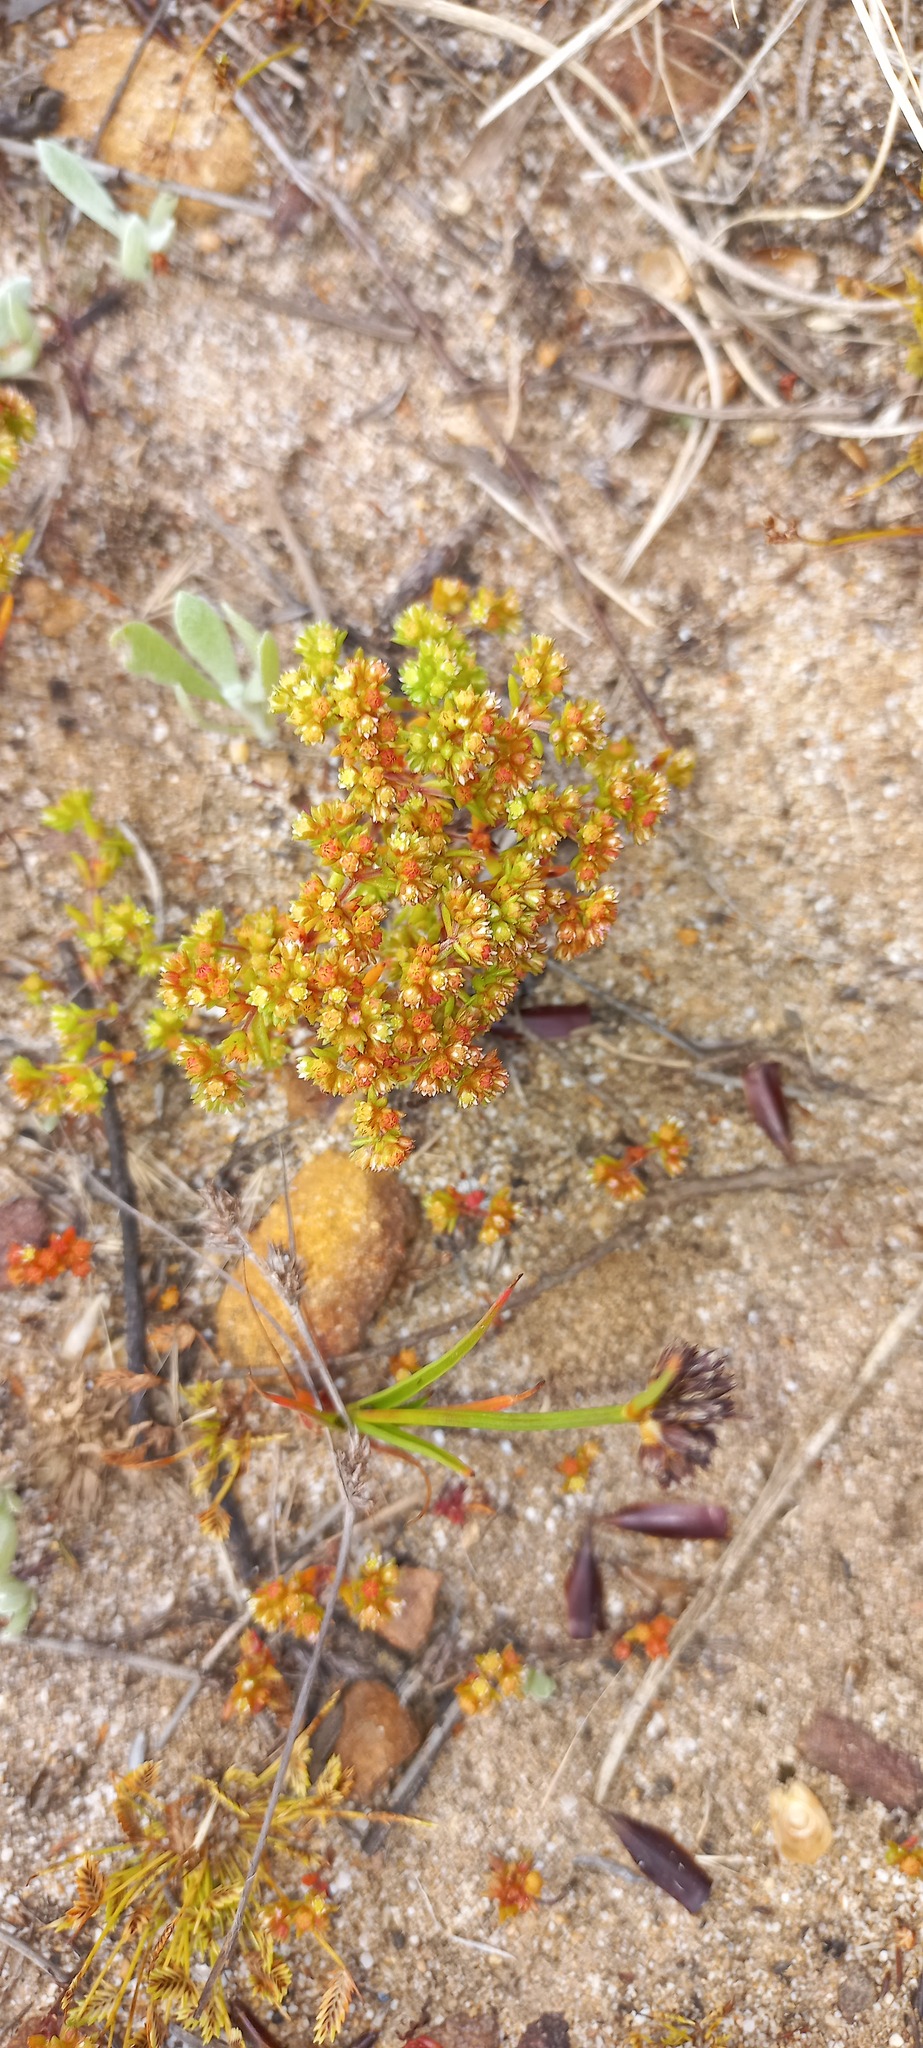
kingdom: Plantae
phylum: Tracheophyta
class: Magnoliopsida
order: Saxifragales
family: Crassulaceae
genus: Crassula
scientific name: Crassula glomerata
